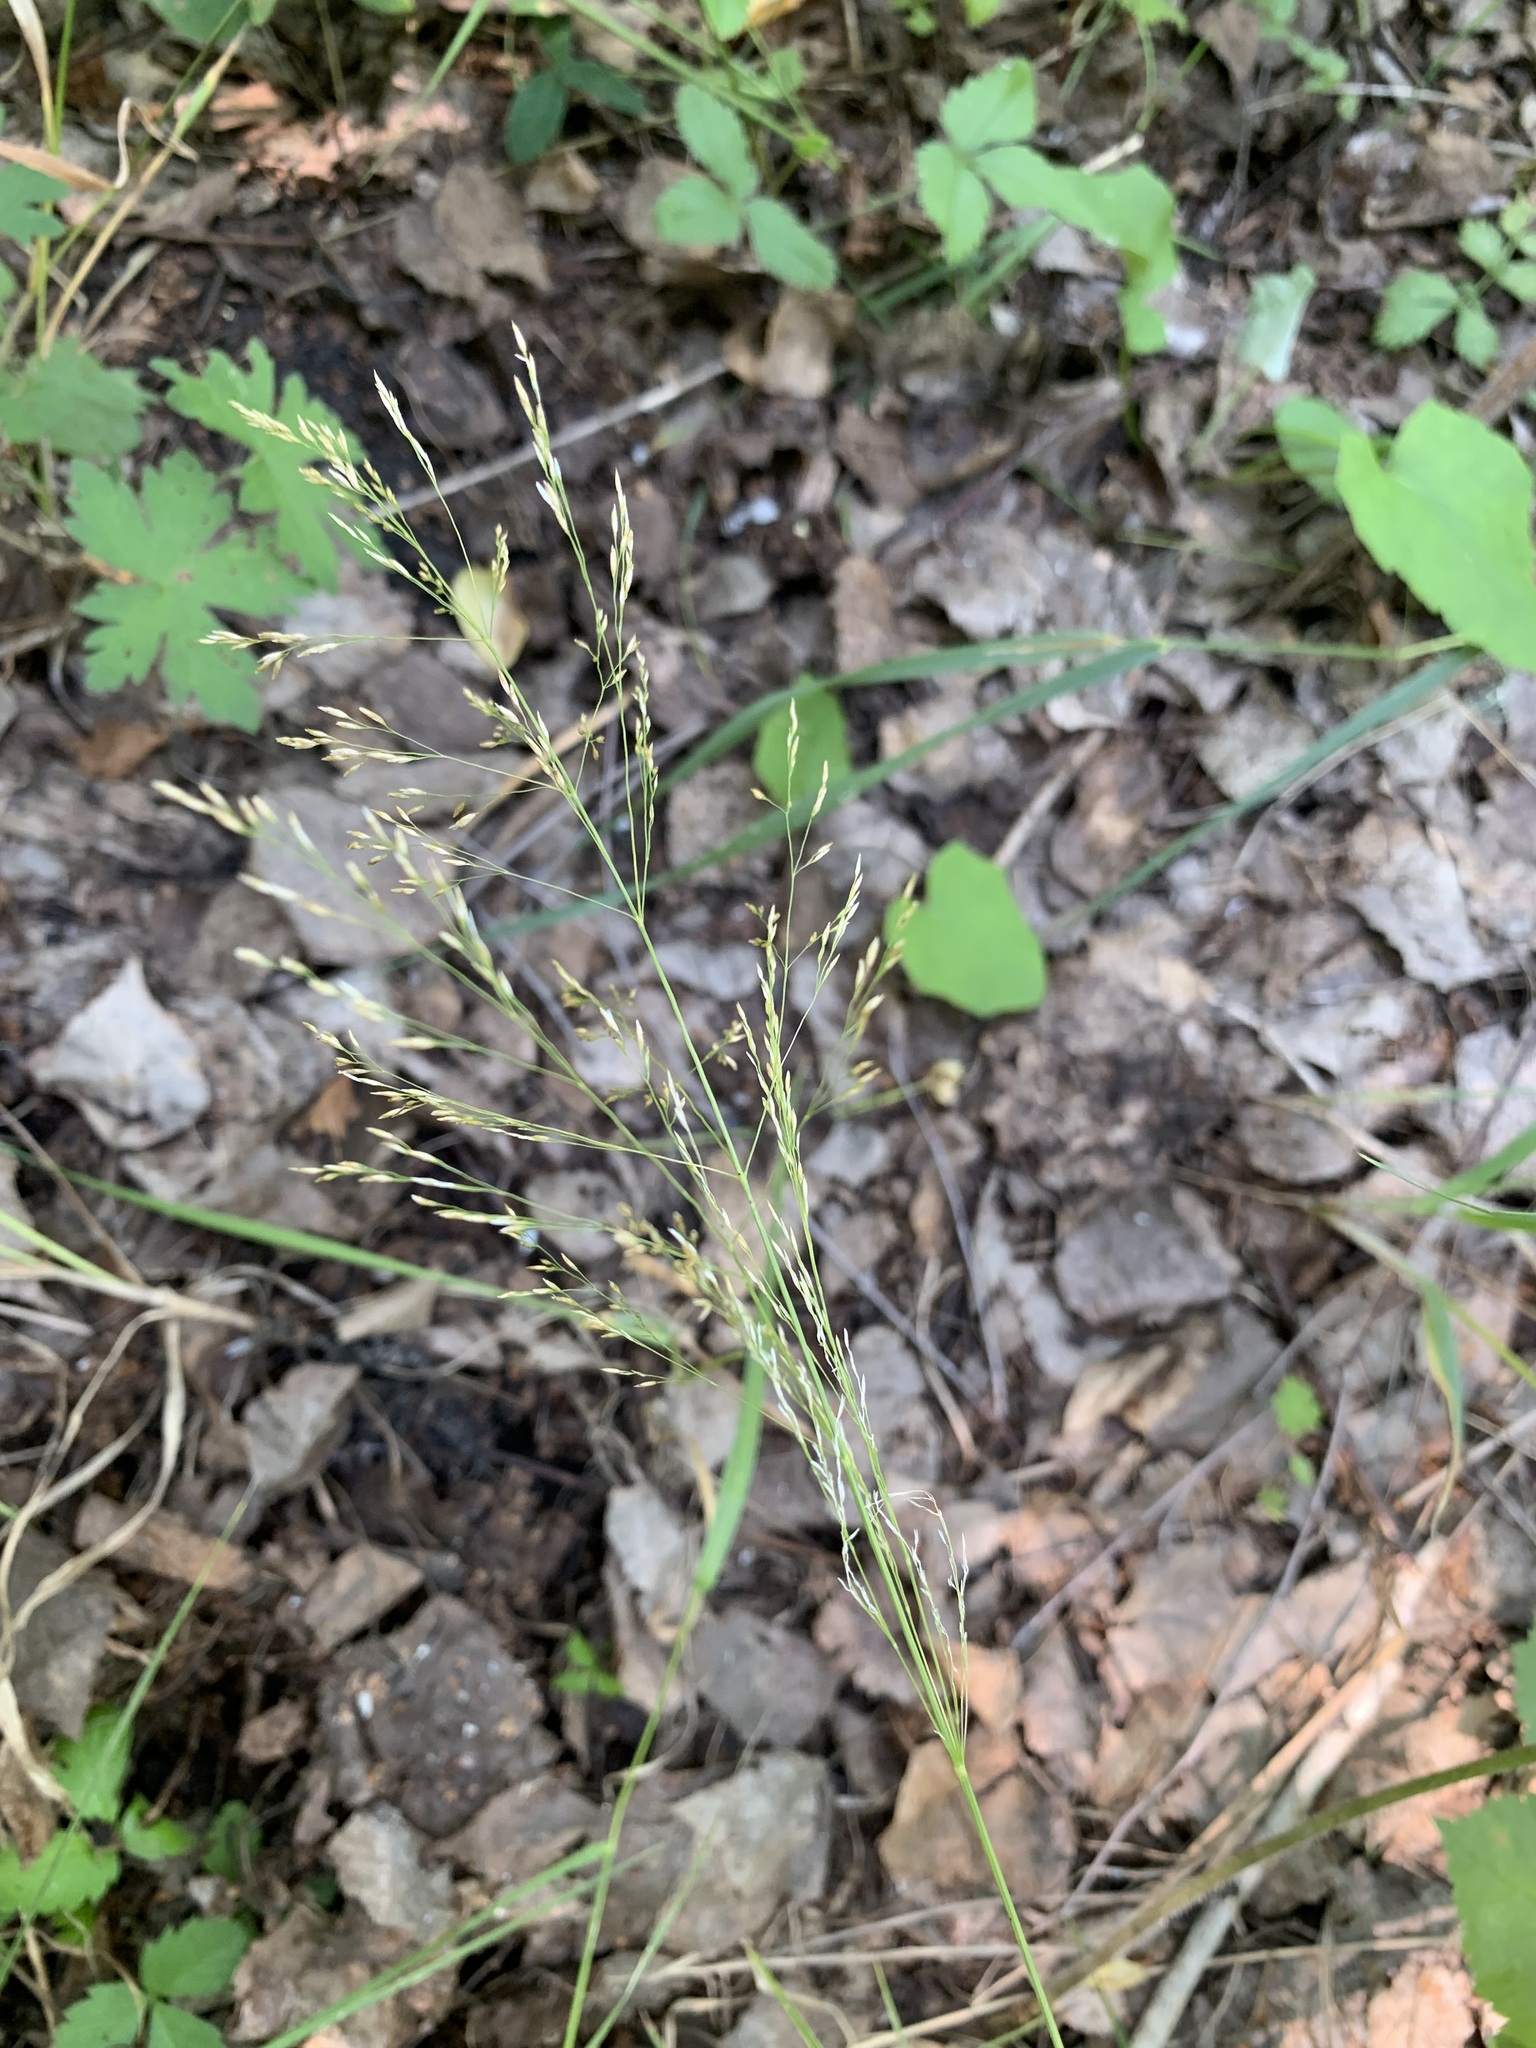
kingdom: Plantae
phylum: Tracheophyta
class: Liliopsida
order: Poales
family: Poaceae
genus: Agrostis
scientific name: Agrostis gigantea
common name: Black bent
